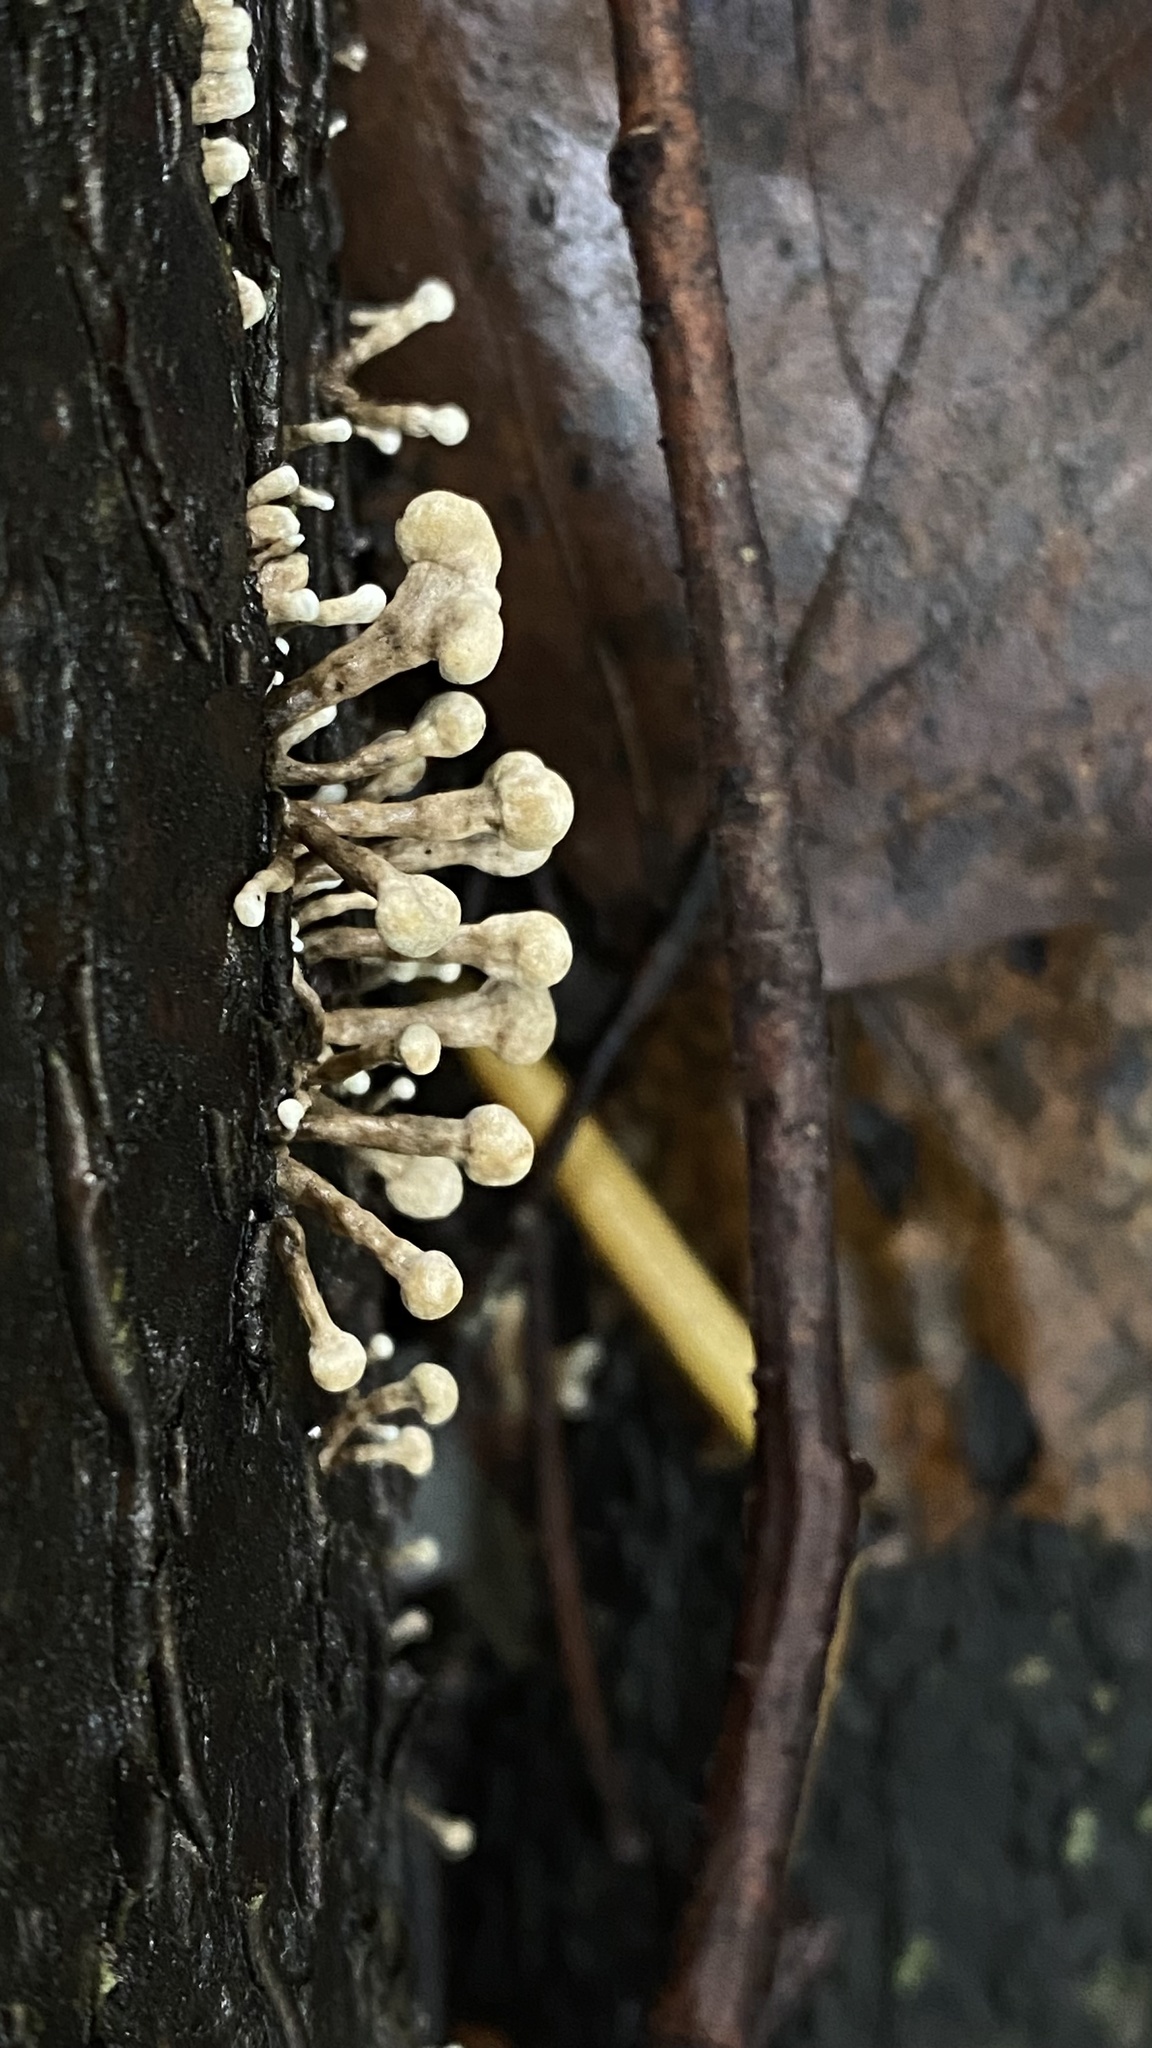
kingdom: Fungi
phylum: Basidiomycota
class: Atractiellomycetes
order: Atractiellales
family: Phleogenaceae
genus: Phleogena
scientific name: Phleogena faginea
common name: Fenugreek stalkball
